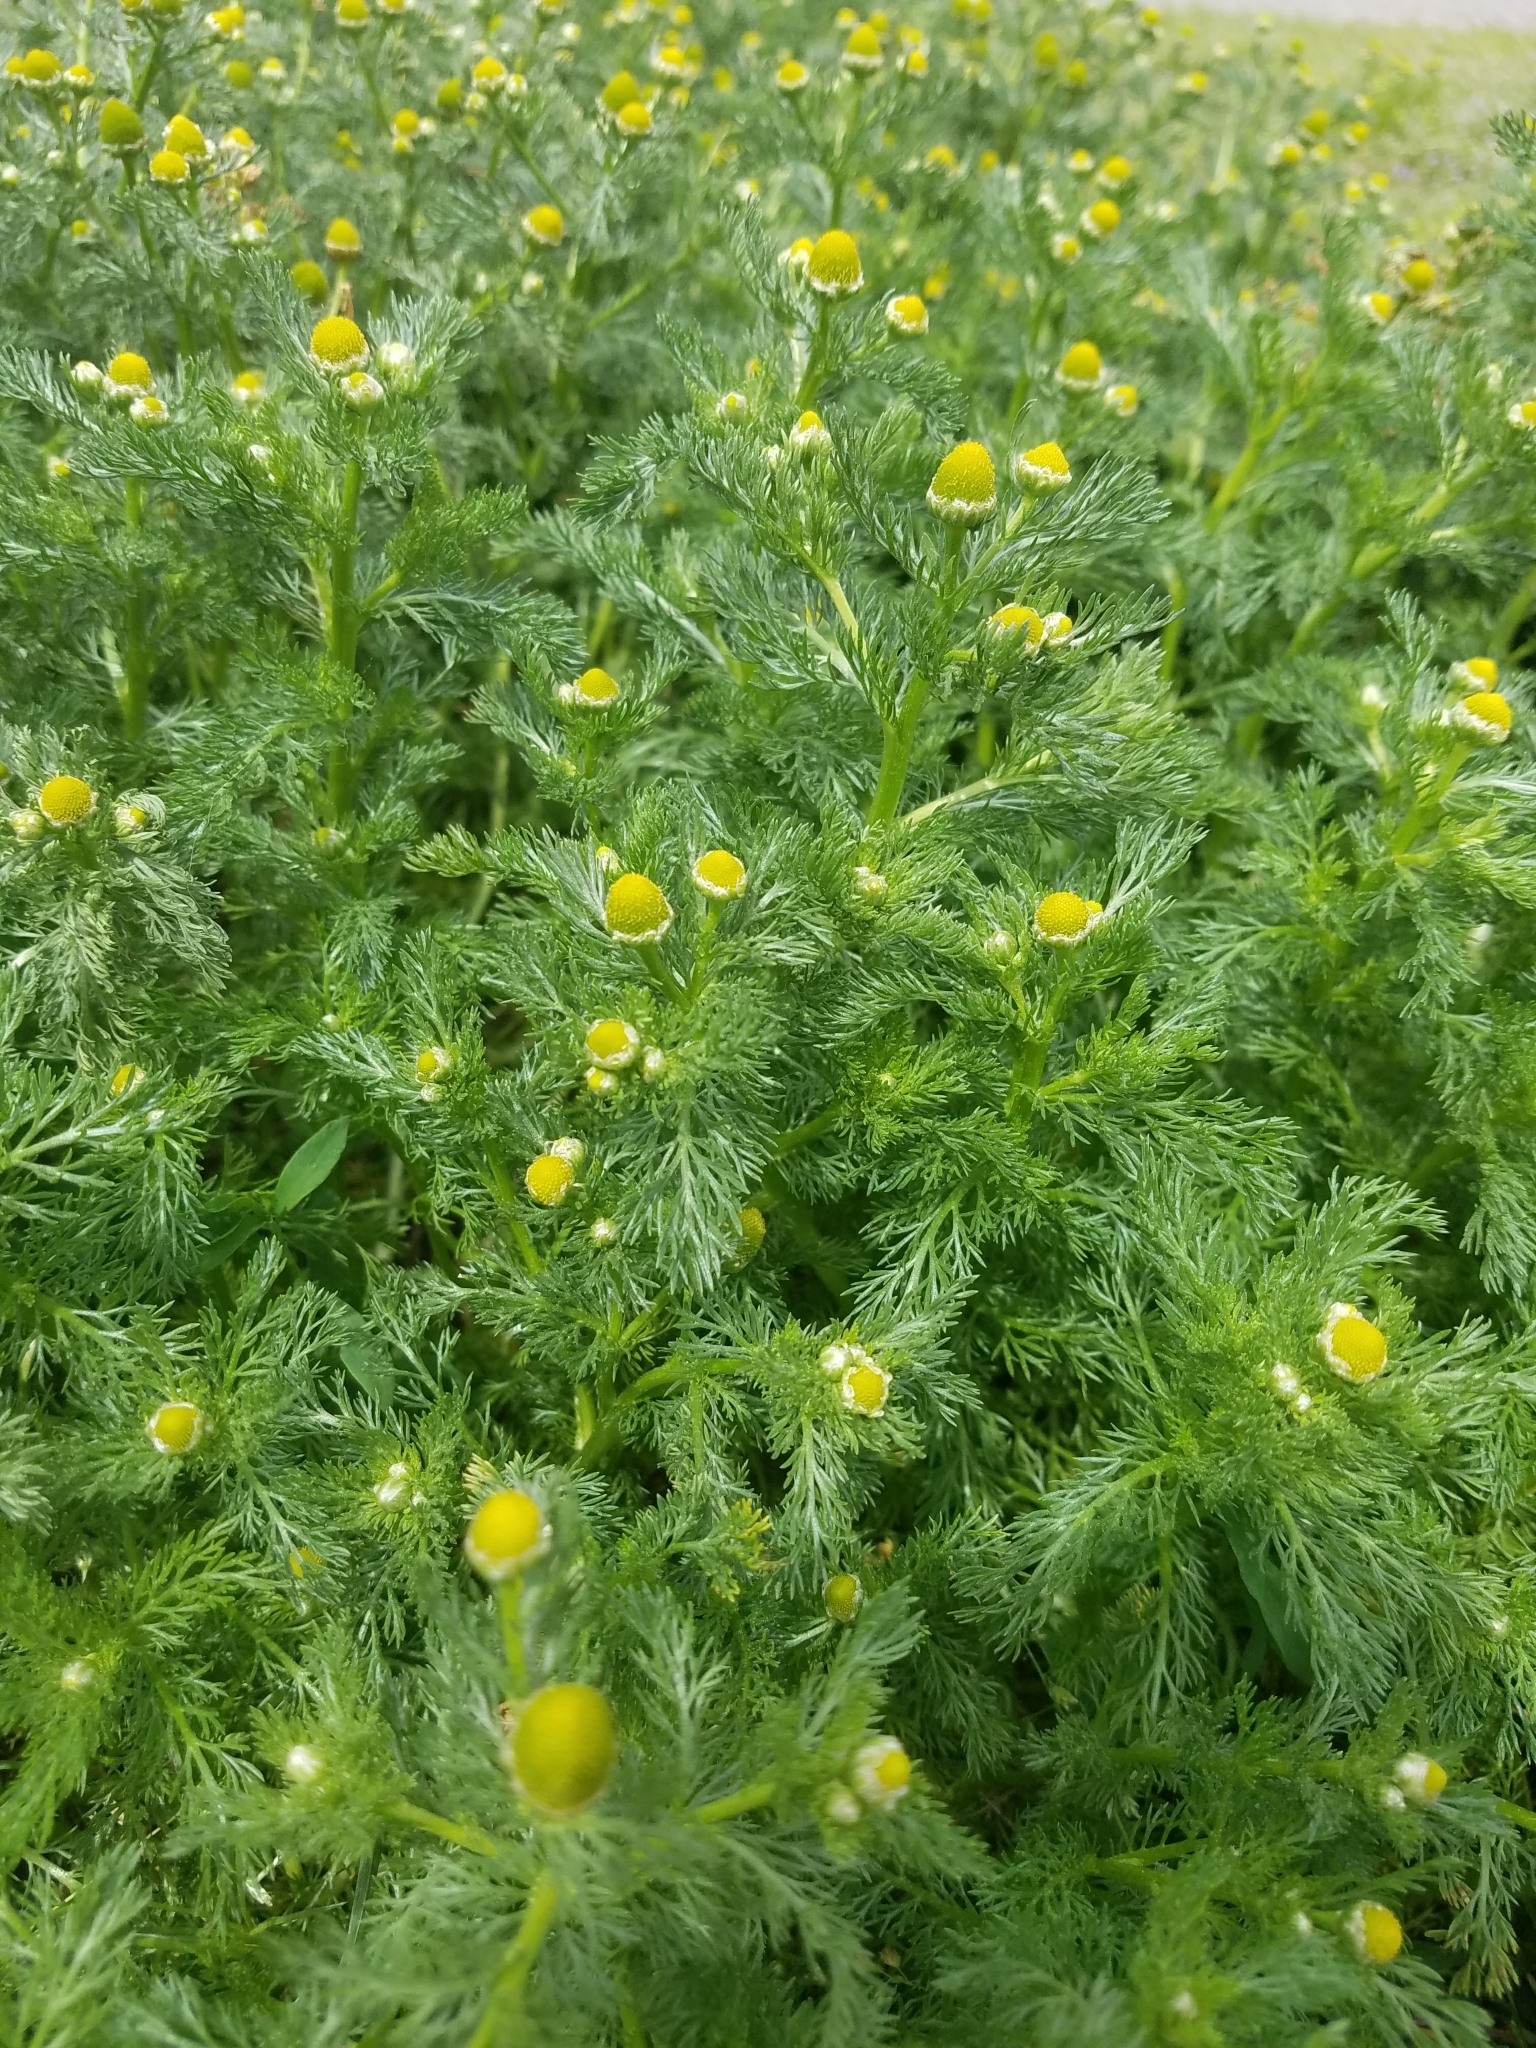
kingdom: Plantae
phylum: Tracheophyta
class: Magnoliopsida
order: Asterales
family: Asteraceae
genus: Matricaria
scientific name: Matricaria discoidea
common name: Disc mayweed
